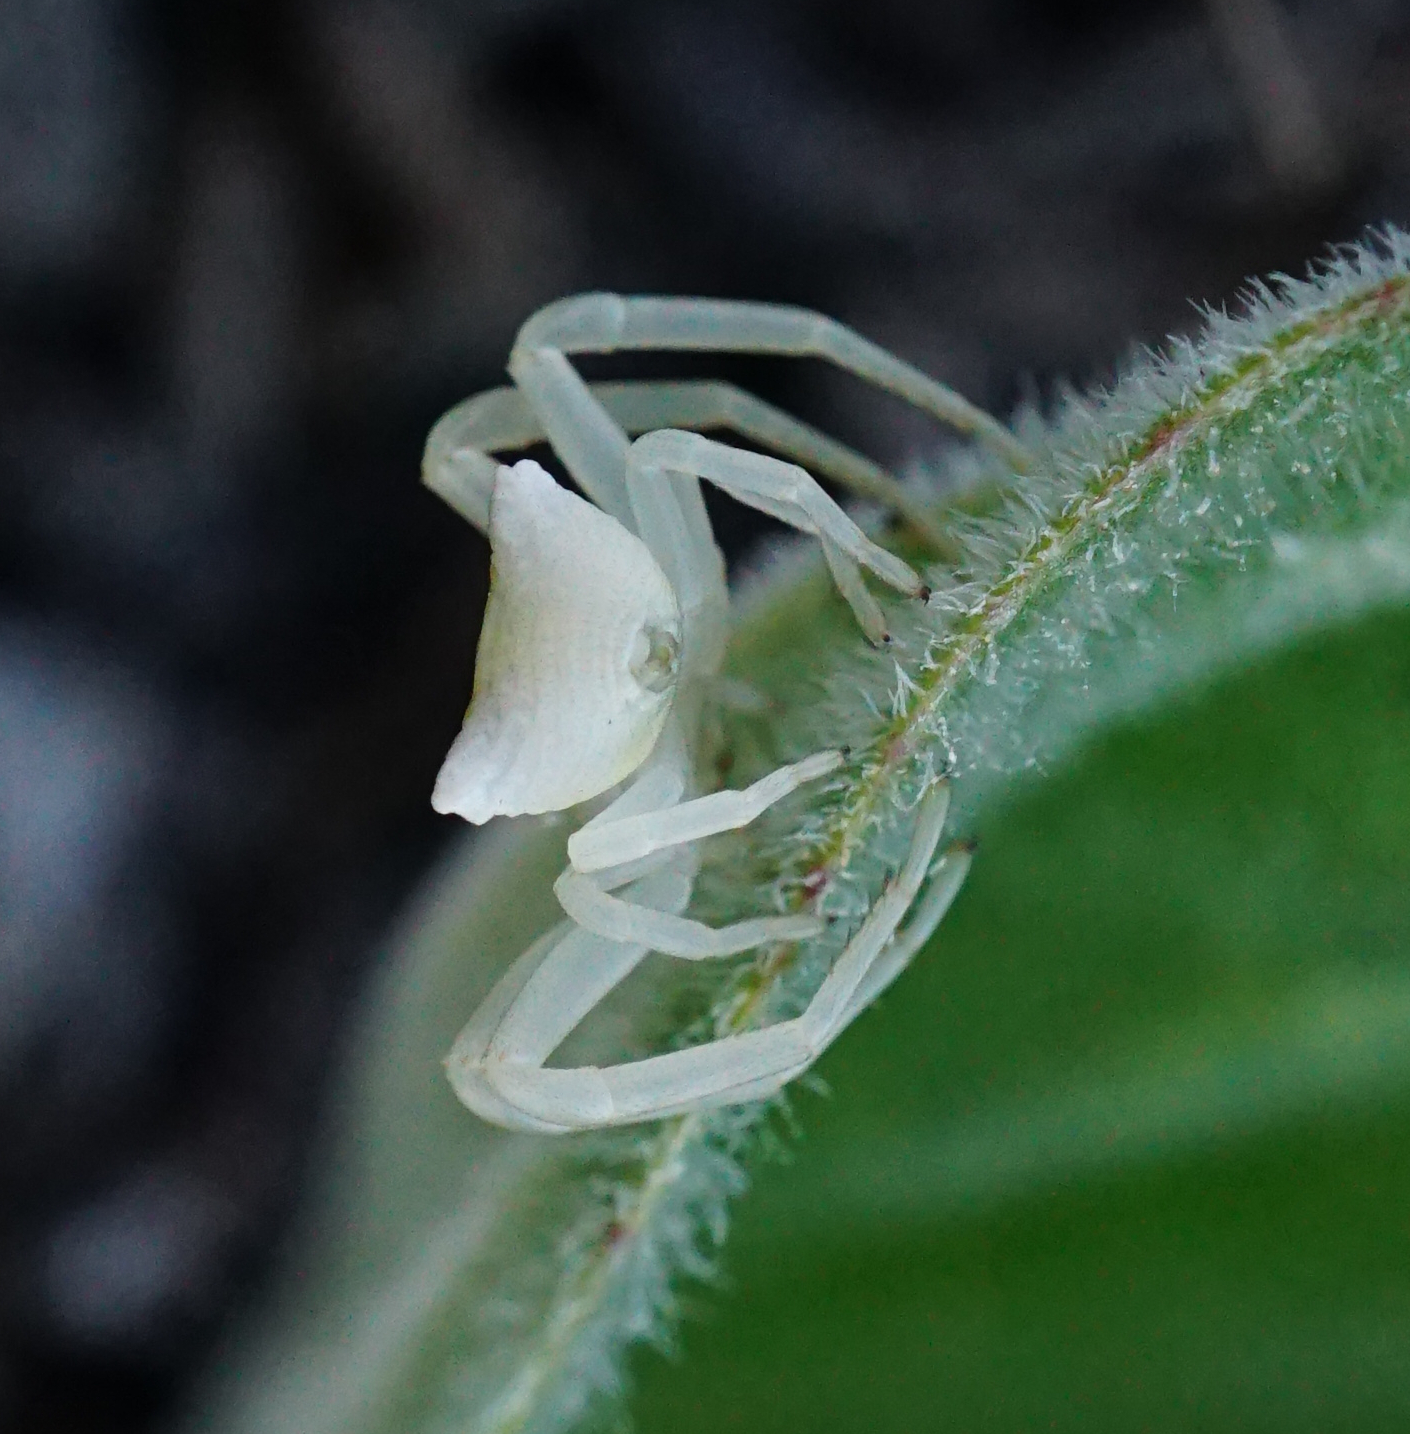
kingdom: Animalia
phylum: Arthropoda
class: Arachnida
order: Araneae
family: Thomisidae
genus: Thomisus
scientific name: Thomisus onustus
